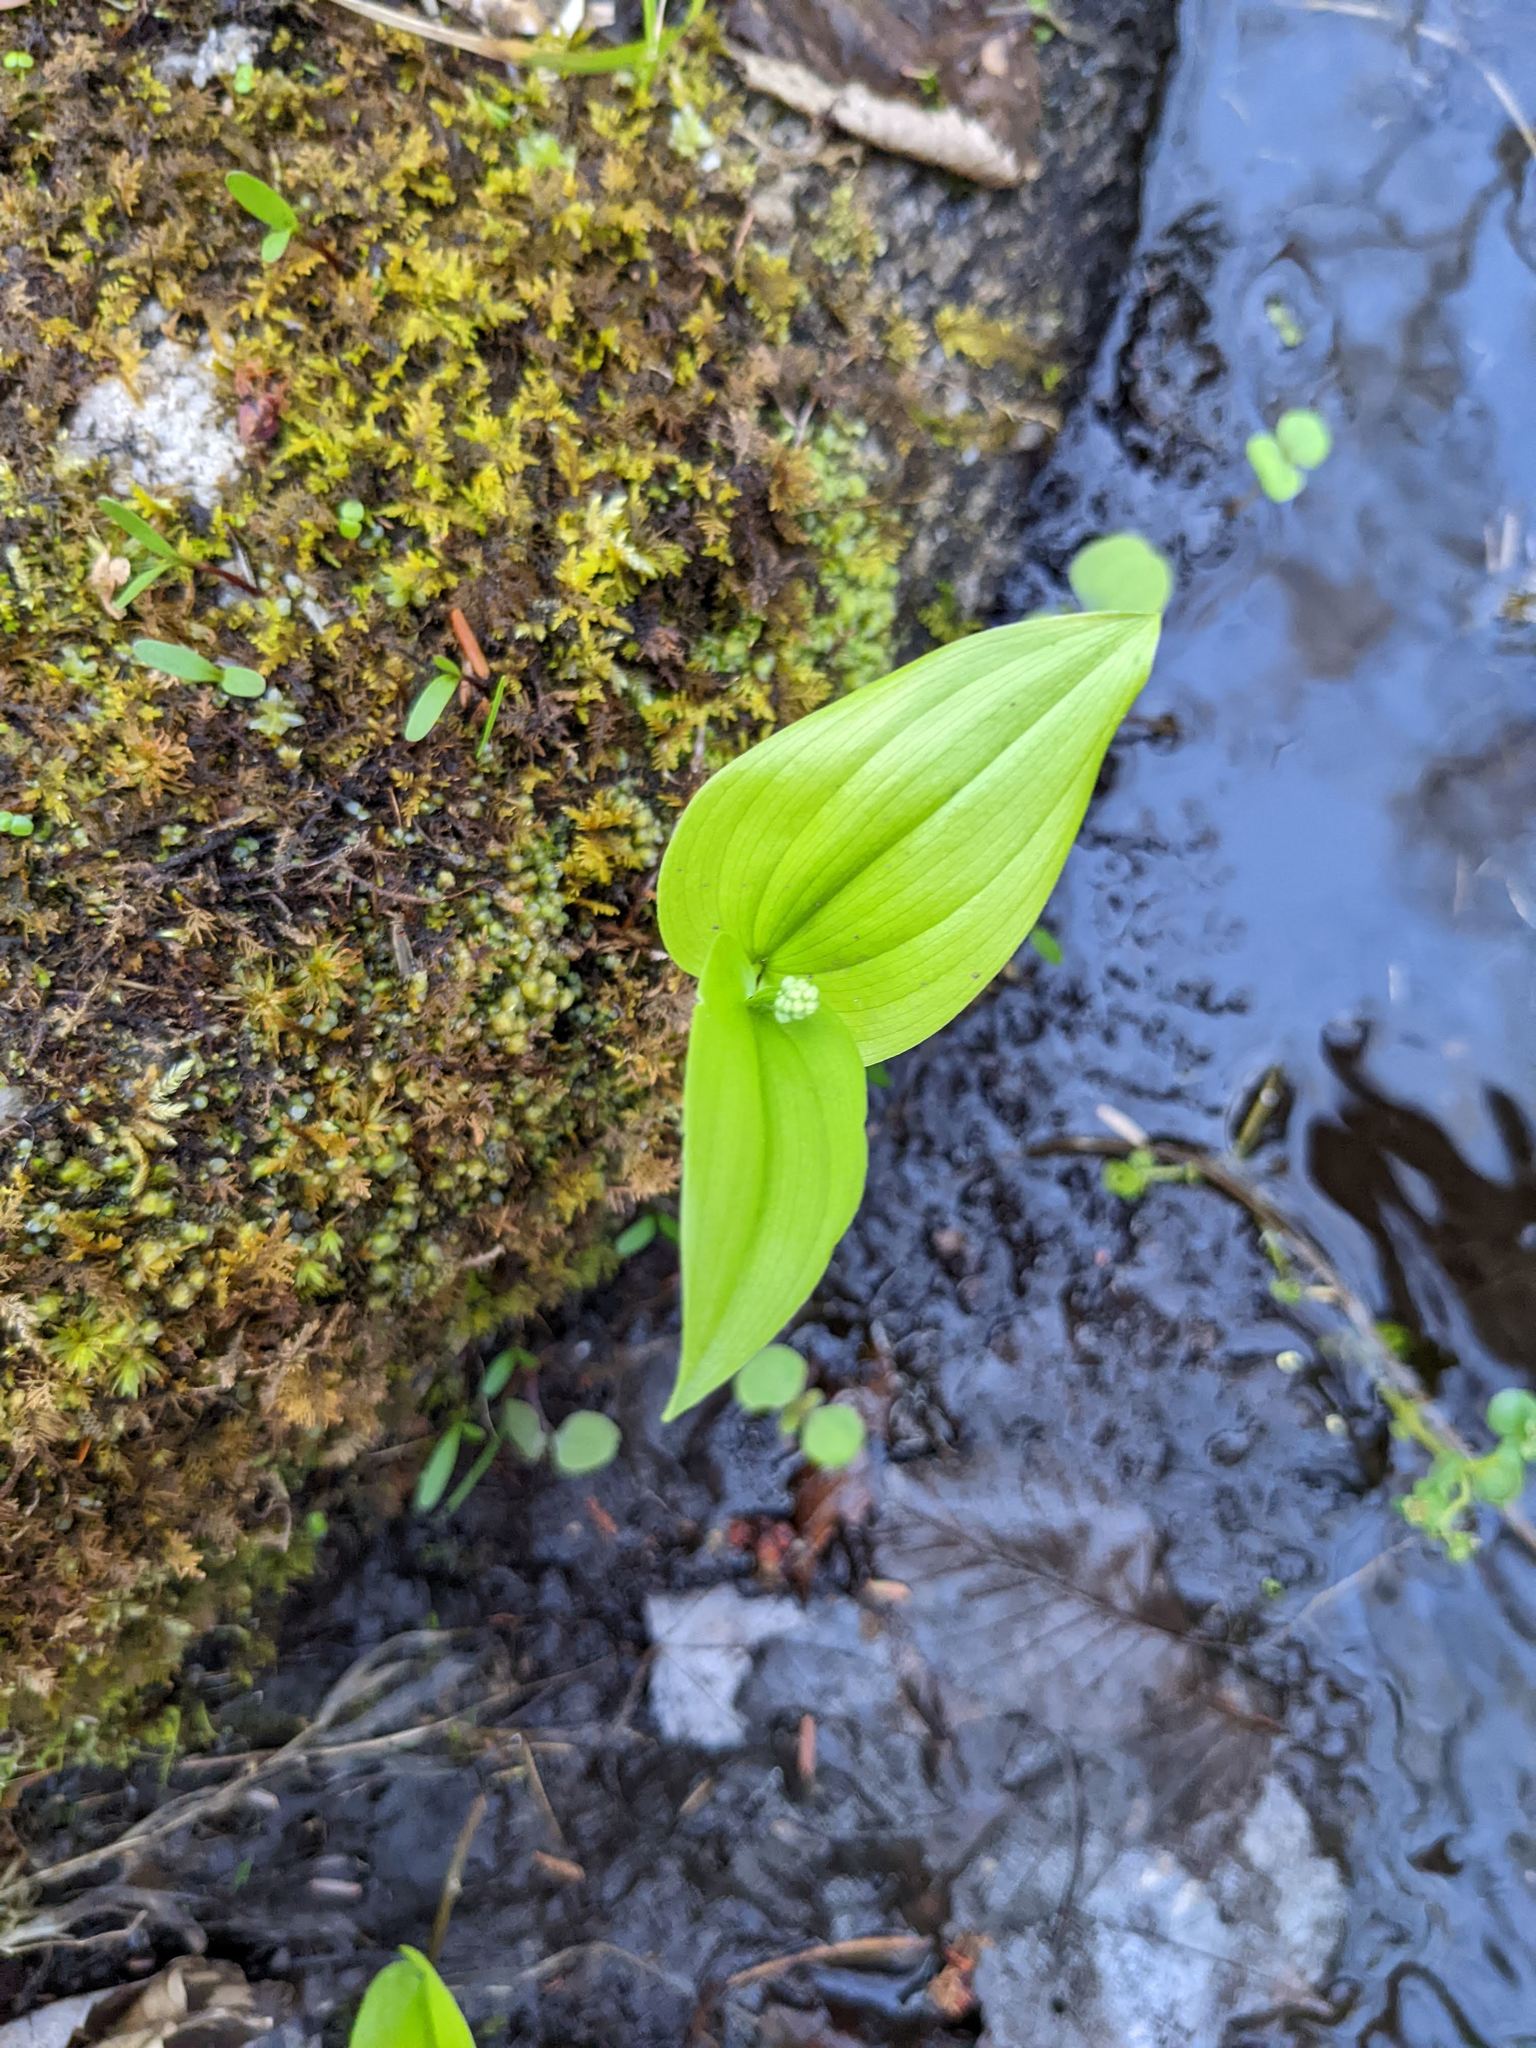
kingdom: Plantae
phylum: Tracheophyta
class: Liliopsida
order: Asparagales
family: Asparagaceae
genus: Maianthemum
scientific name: Maianthemum canadense
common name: False lily-of-the-valley
